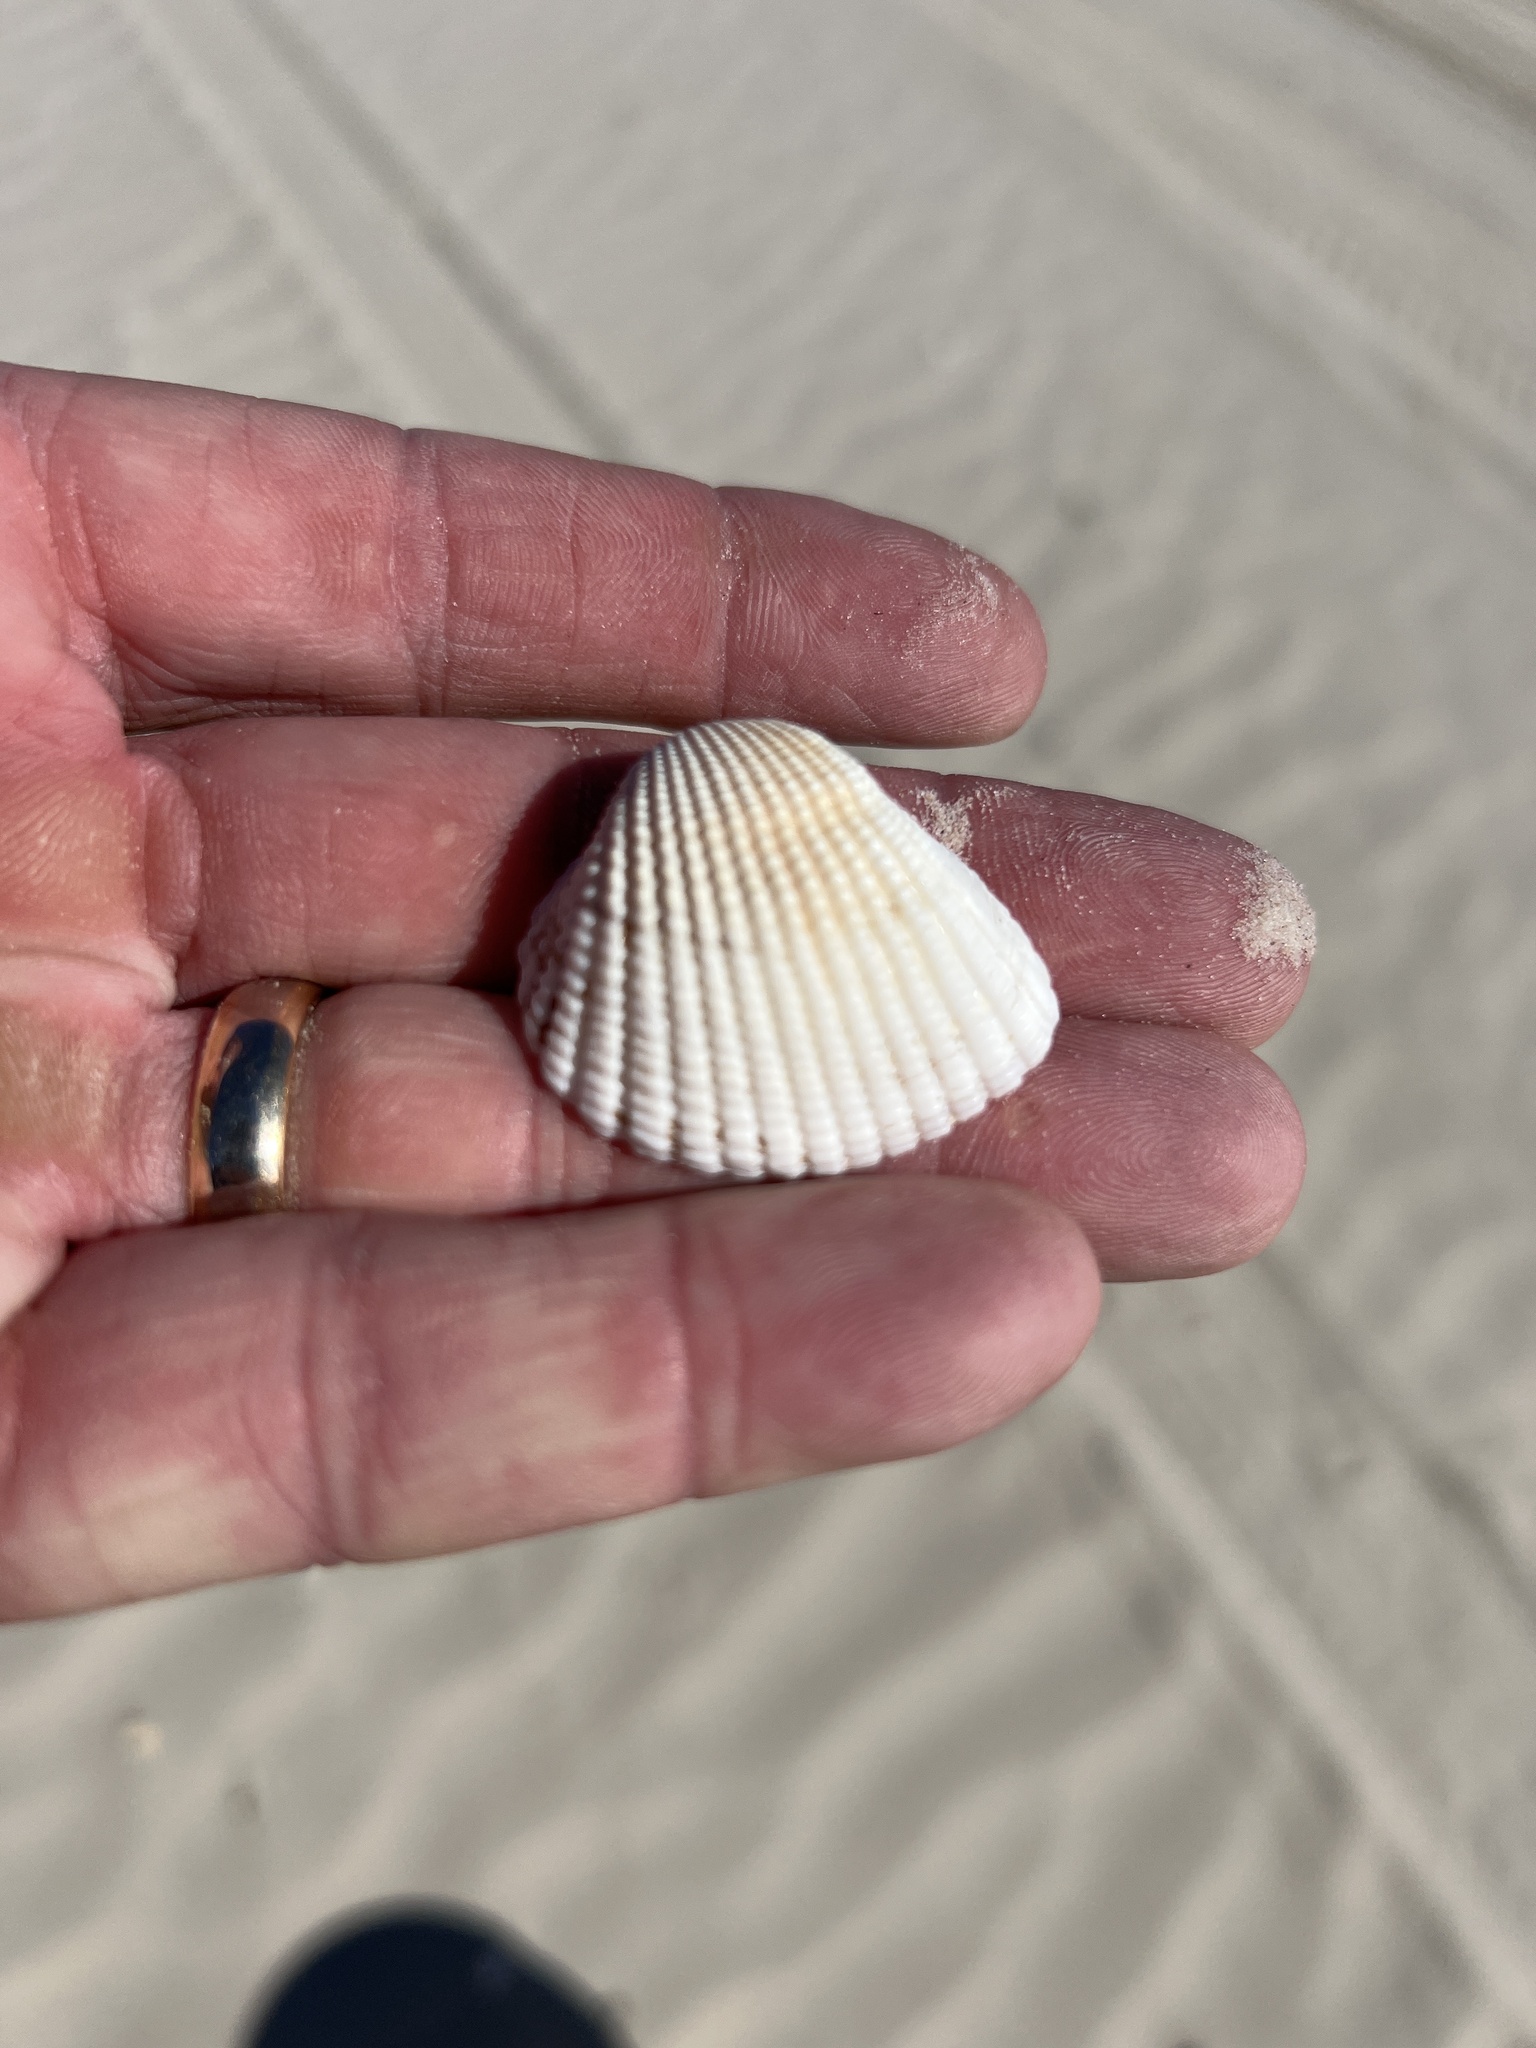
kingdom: Animalia
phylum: Mollusca
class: Bivalvia
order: Arcida
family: Arcidae
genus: Anadara
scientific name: Anadara brasiliana
